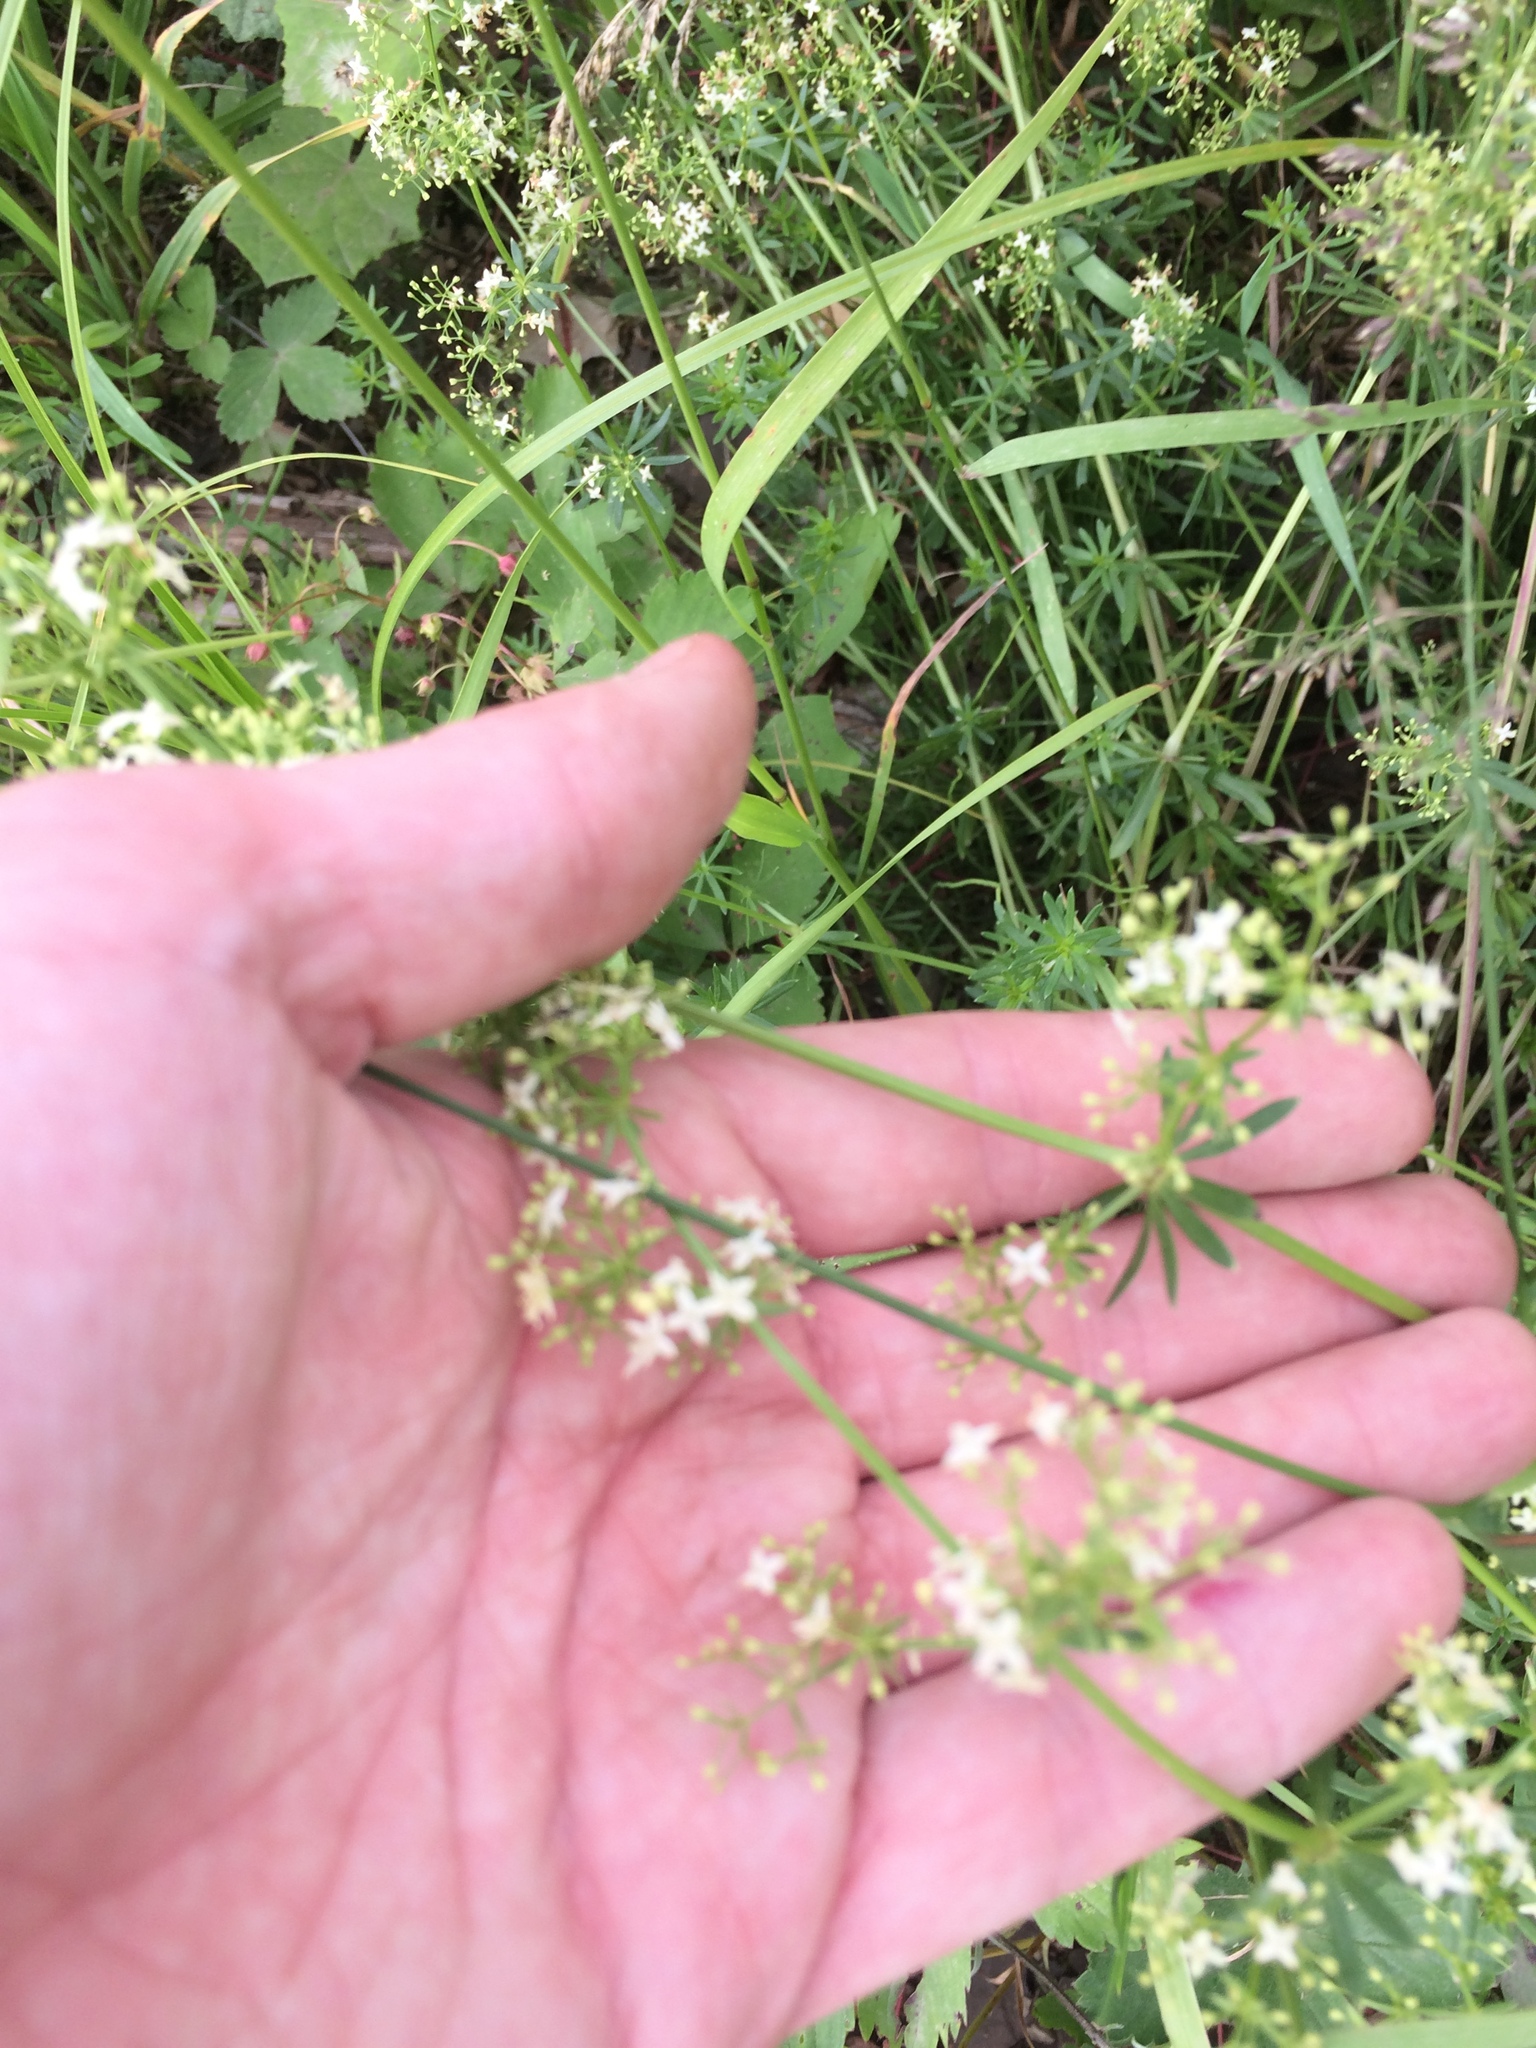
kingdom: Plantae
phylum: Tracheophyta
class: Magnoliopsida
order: Gentianales
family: Rubiaceae
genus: Galium
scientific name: Galium mollugo
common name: Hedge bedstraw
